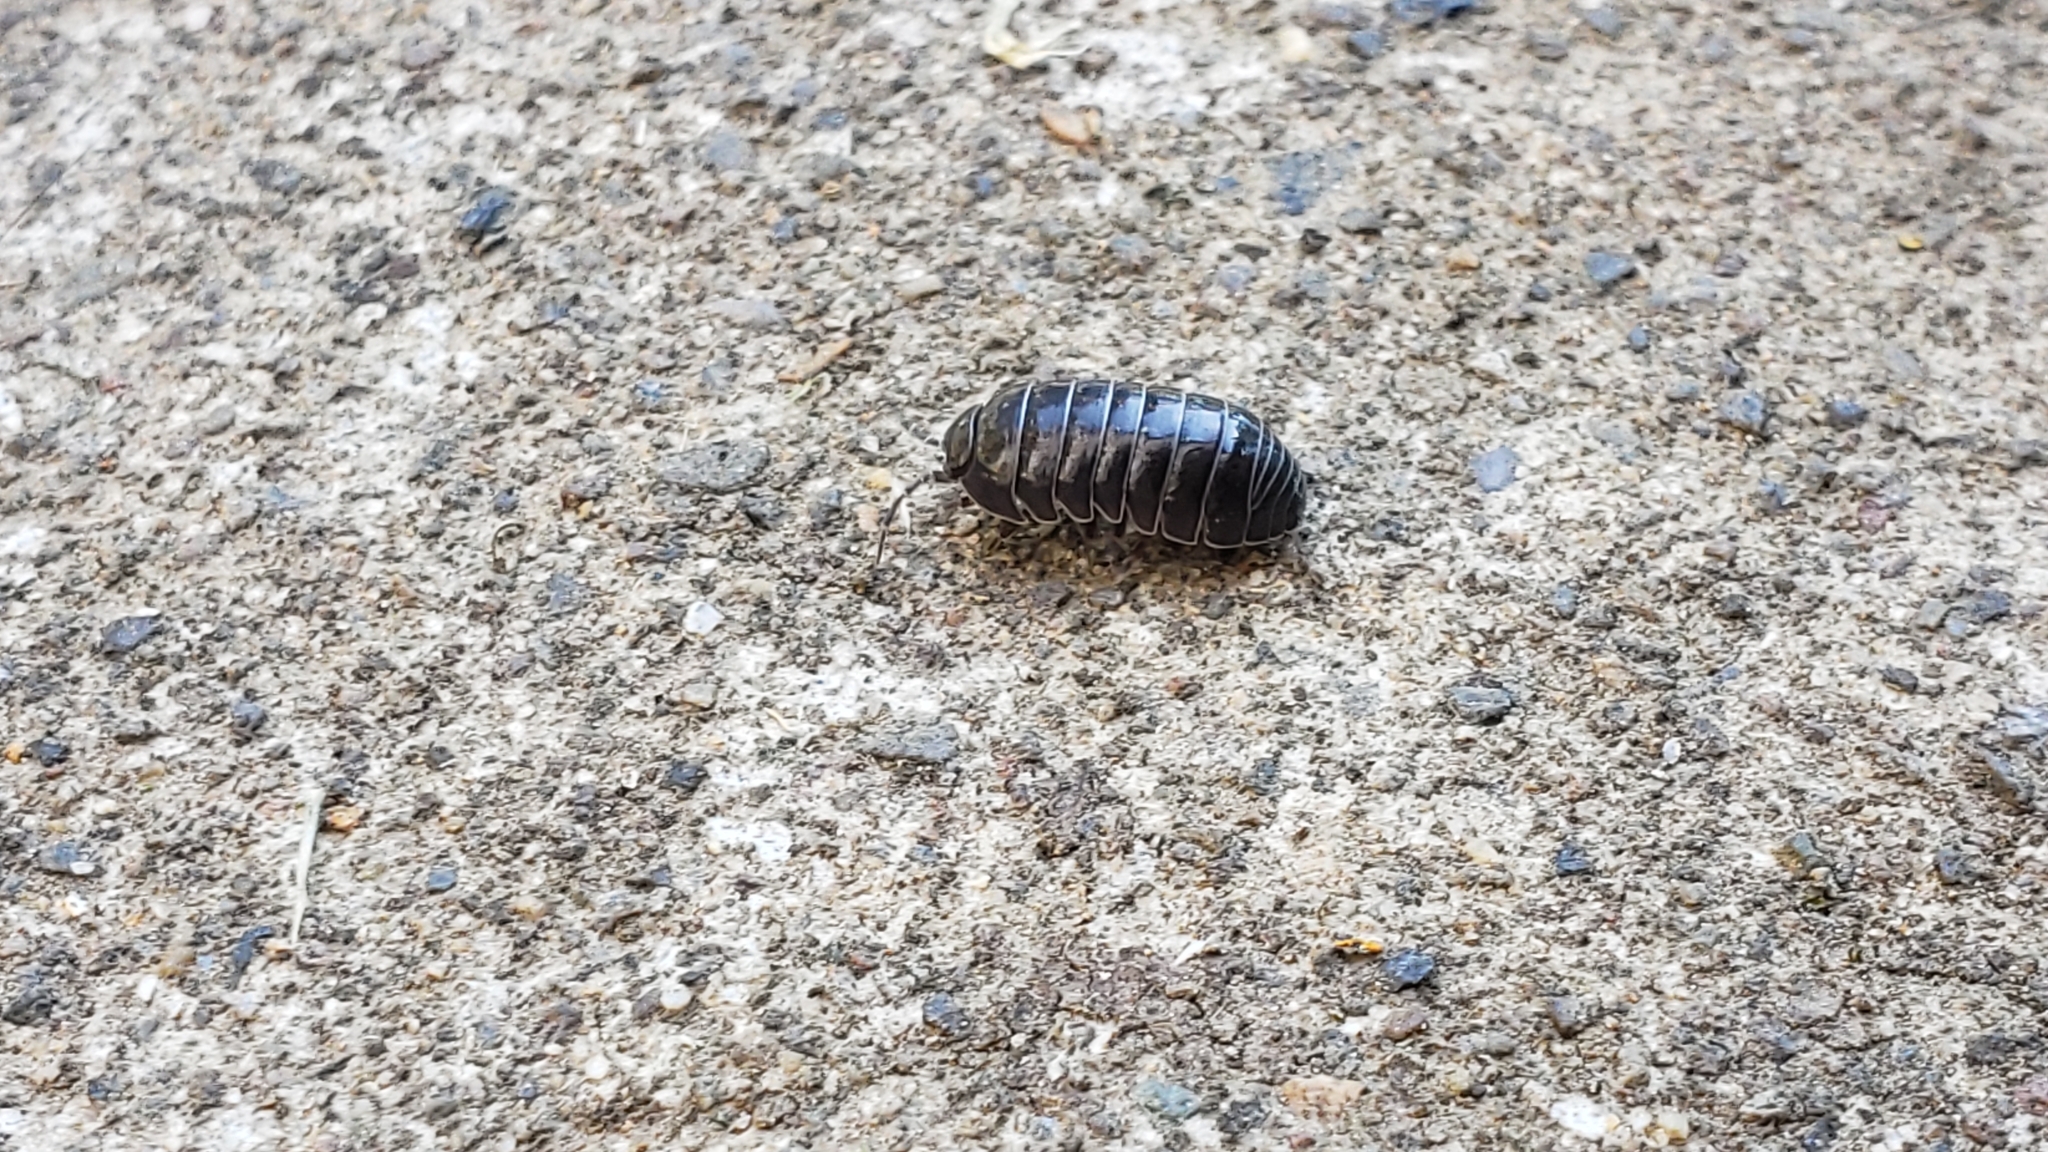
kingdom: Animalia
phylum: Arthropoda
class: Malacostraca
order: Isopoda
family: Armadillidiidae
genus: Armadillidium
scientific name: Armadillidium vulgare
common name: Common pill woodlouse
